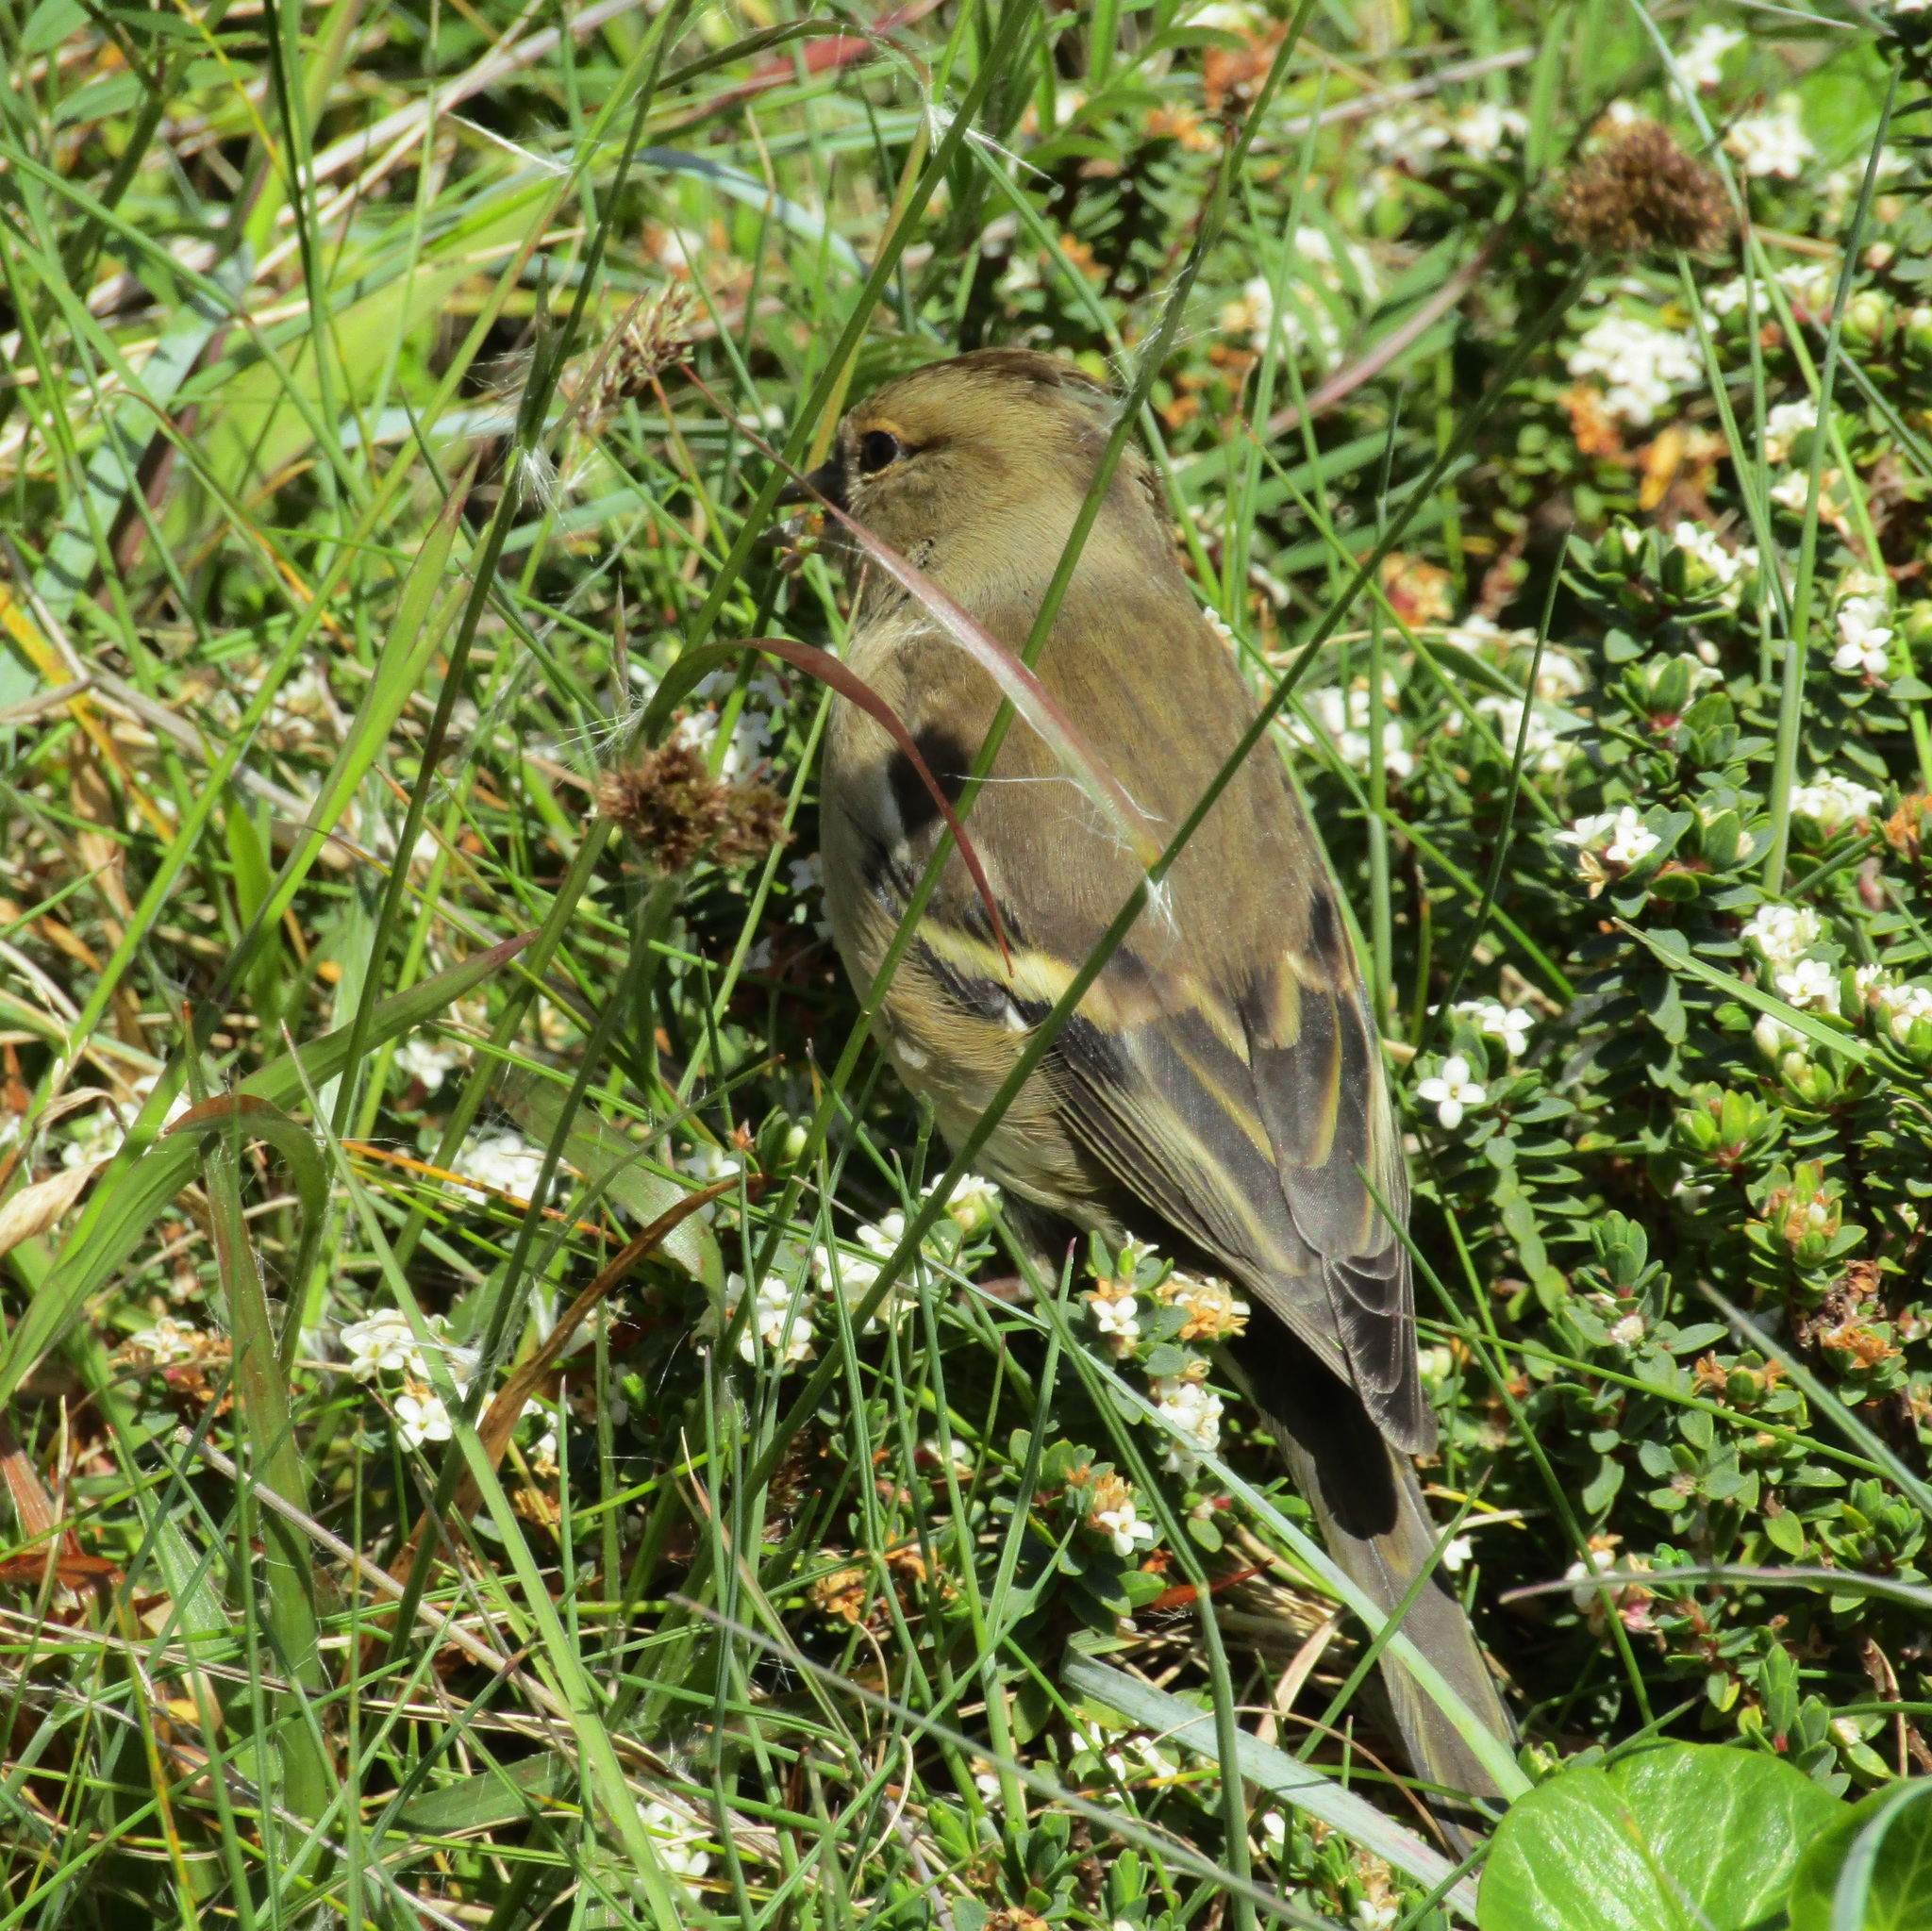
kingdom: Animalia
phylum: Chordata
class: Aves
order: Passeriformes
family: Fringillidae
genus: Fringilla
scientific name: Fringilla coelebs
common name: Common chaffinch
